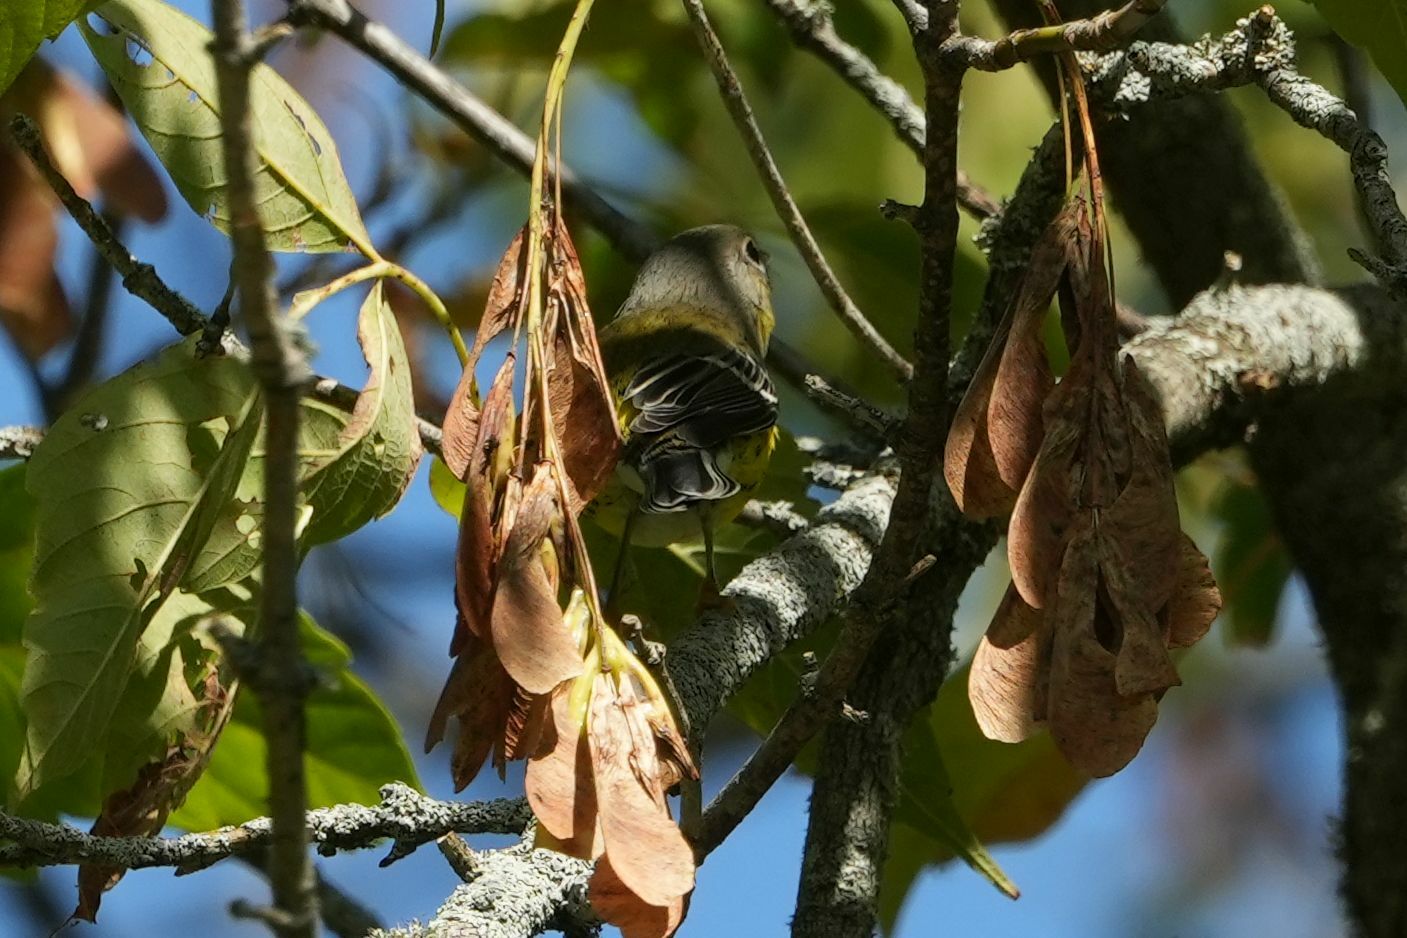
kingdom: Animalia
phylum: Chordata
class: Aves
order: Passeriformes
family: Parulidae
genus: Setophaga
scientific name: Setophaga magnolia
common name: Magnolia warbler
